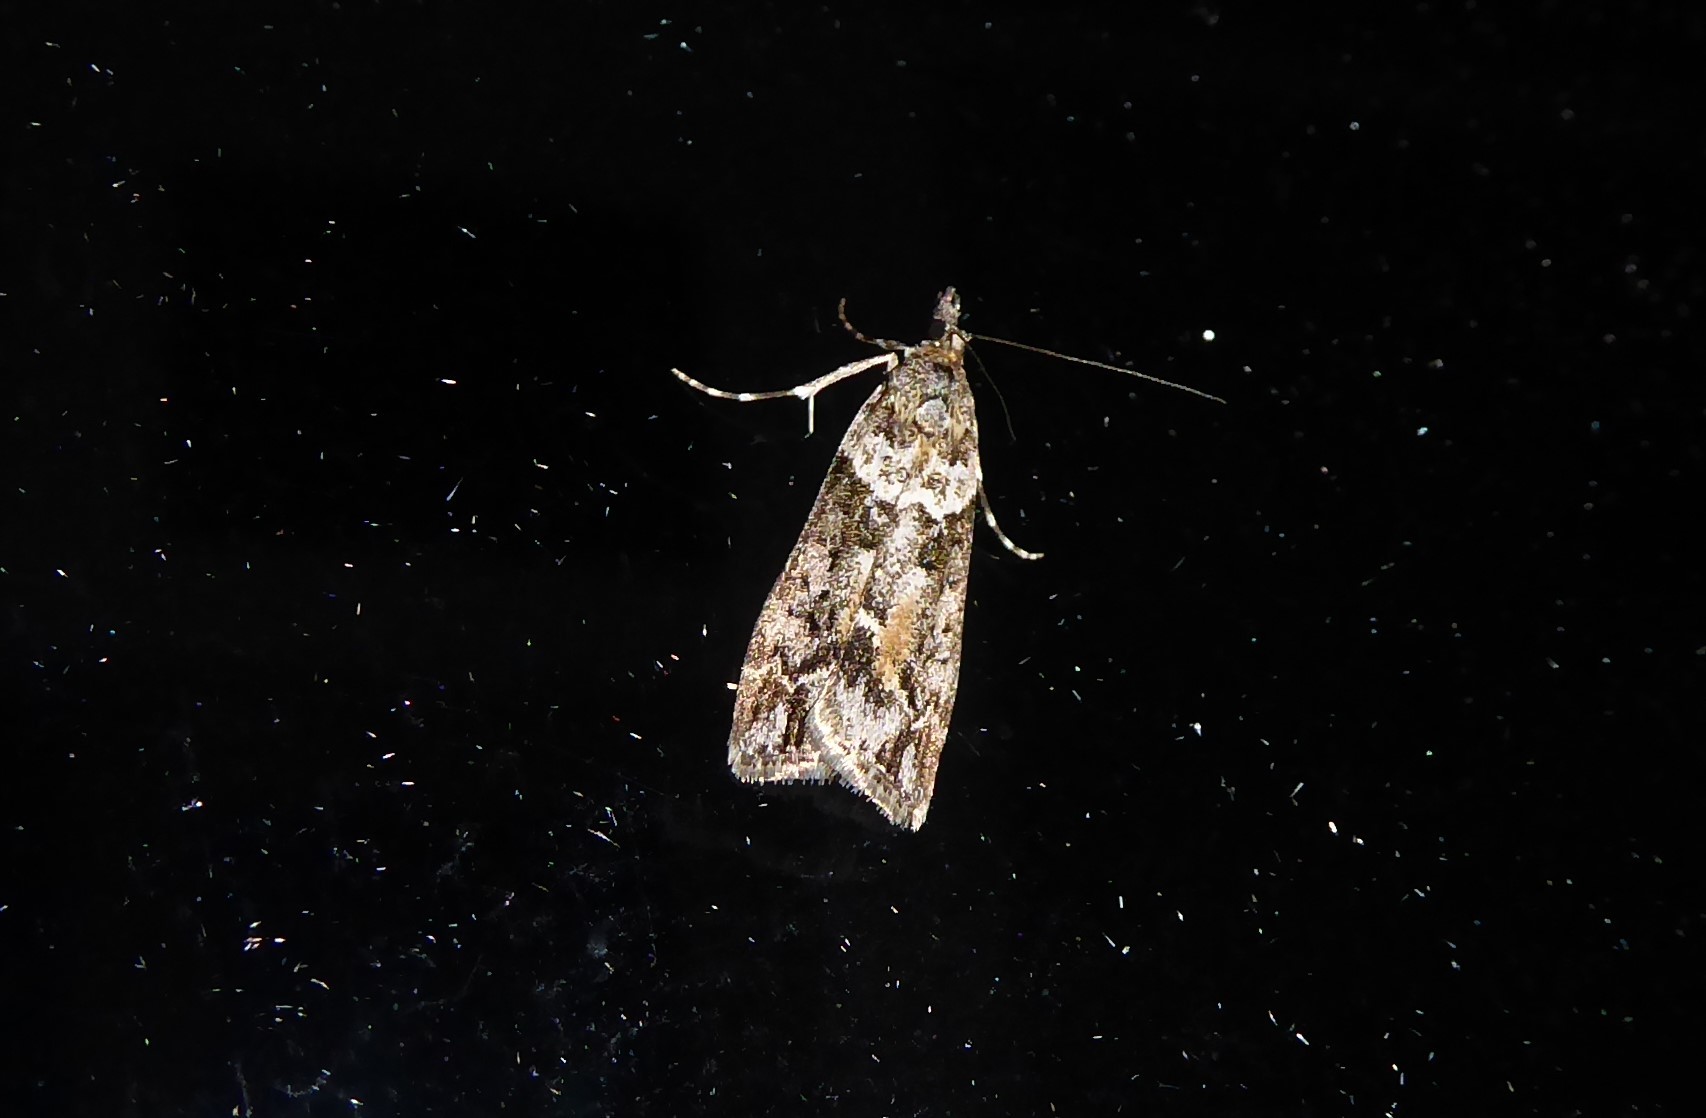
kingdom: Animalia
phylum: Arthropoda
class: Insecta
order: Lepidoptera
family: Crambidae
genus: Eudonia
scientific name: Eudonia submarginalis
